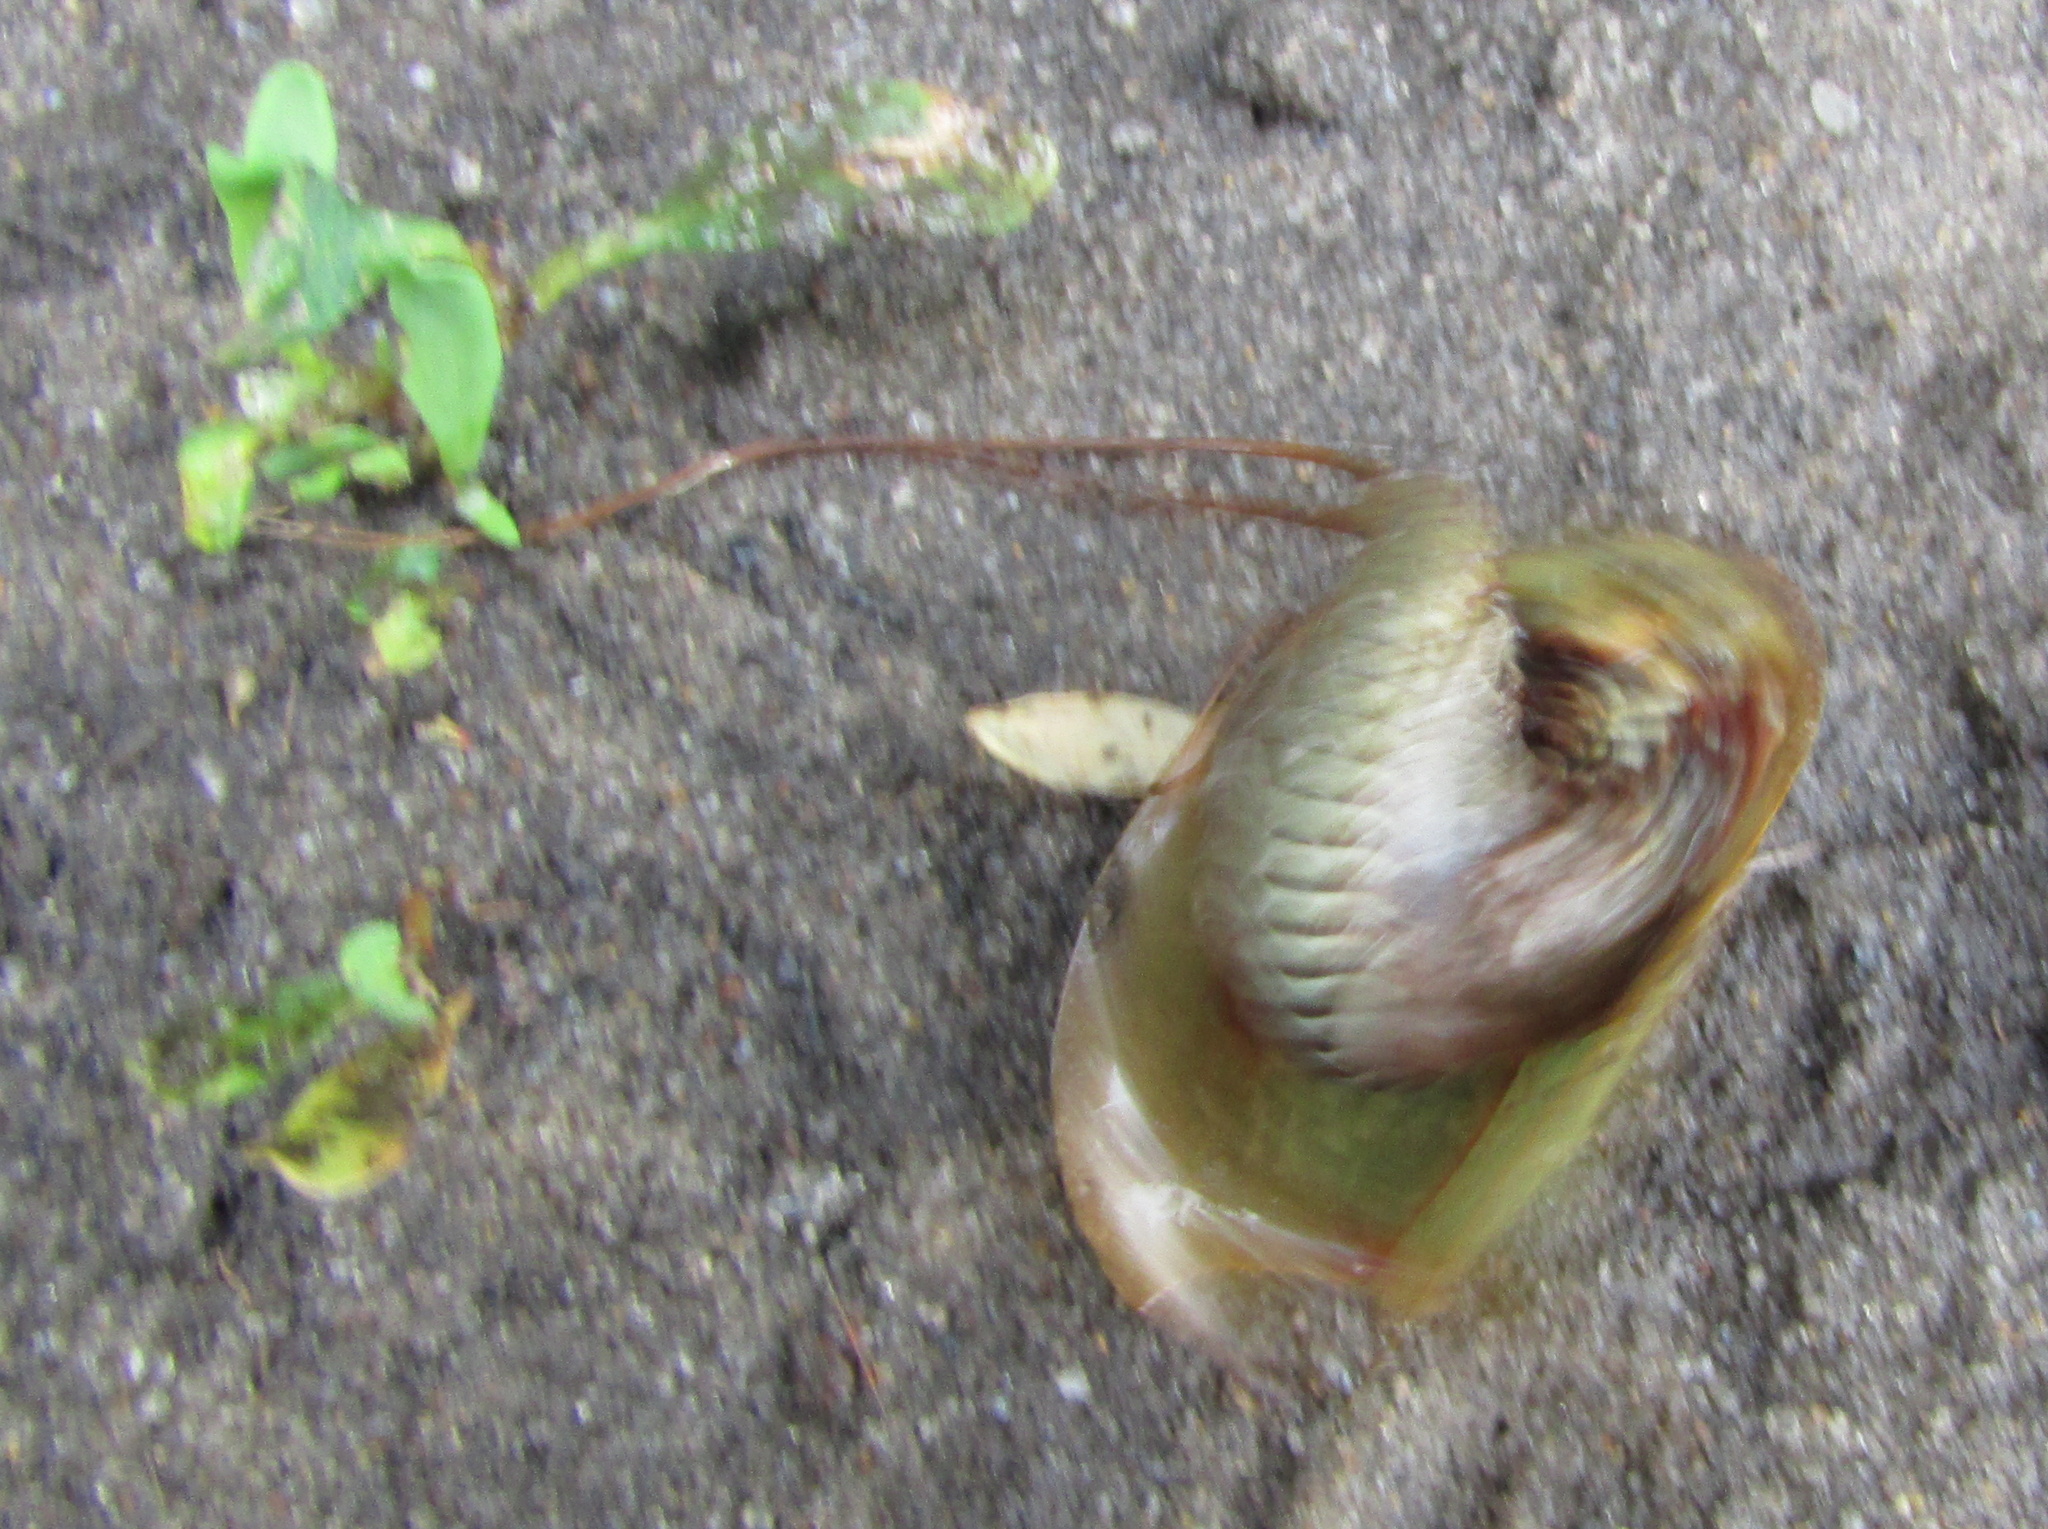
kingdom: Animalia
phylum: Arthropoda
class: Branchiopoda
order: Notostraca
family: Triopsidae
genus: Triops
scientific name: Triops cancriformis
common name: Tadpole shrimp
